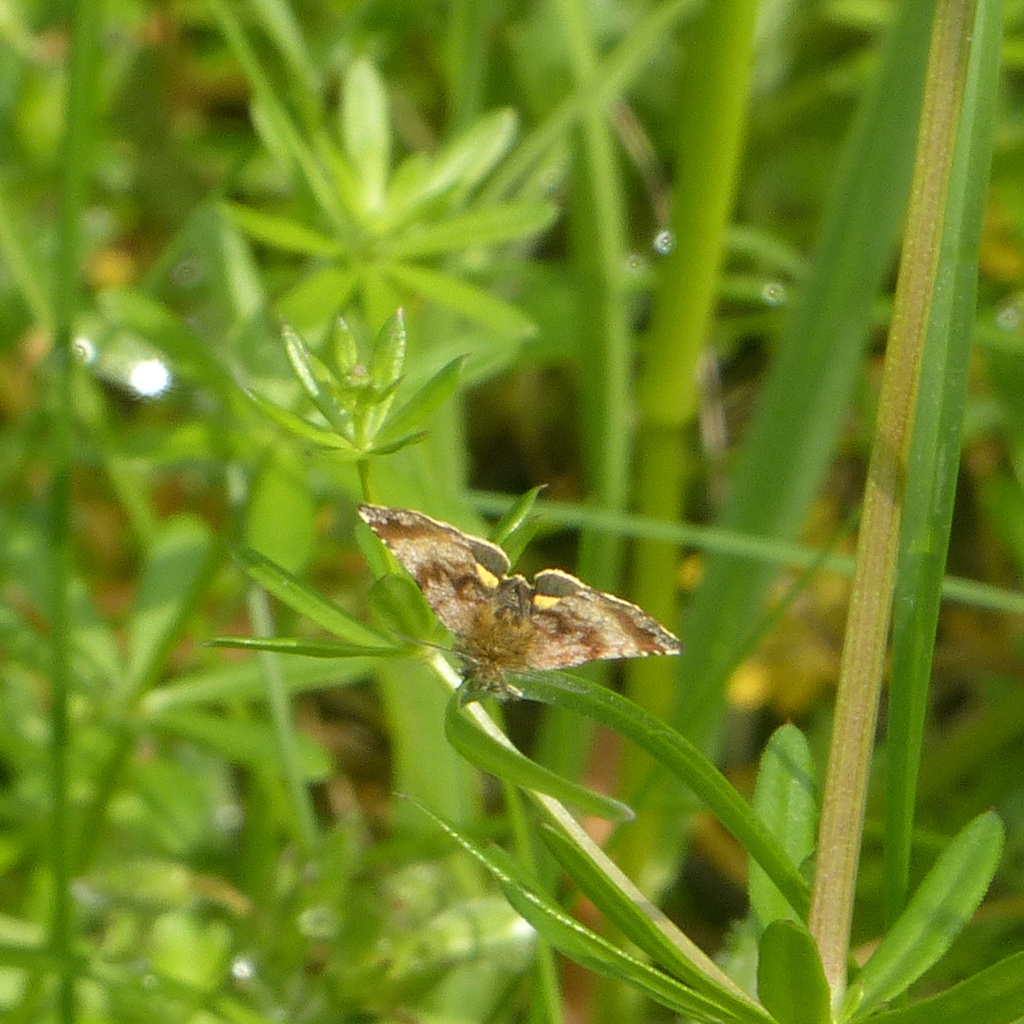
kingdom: Animalia
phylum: Arthropoda
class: Insecta
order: Lepidoptera
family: Noctuidae
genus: Panemeria
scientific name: Panemeria tenebrata
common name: Small yellow underwing
